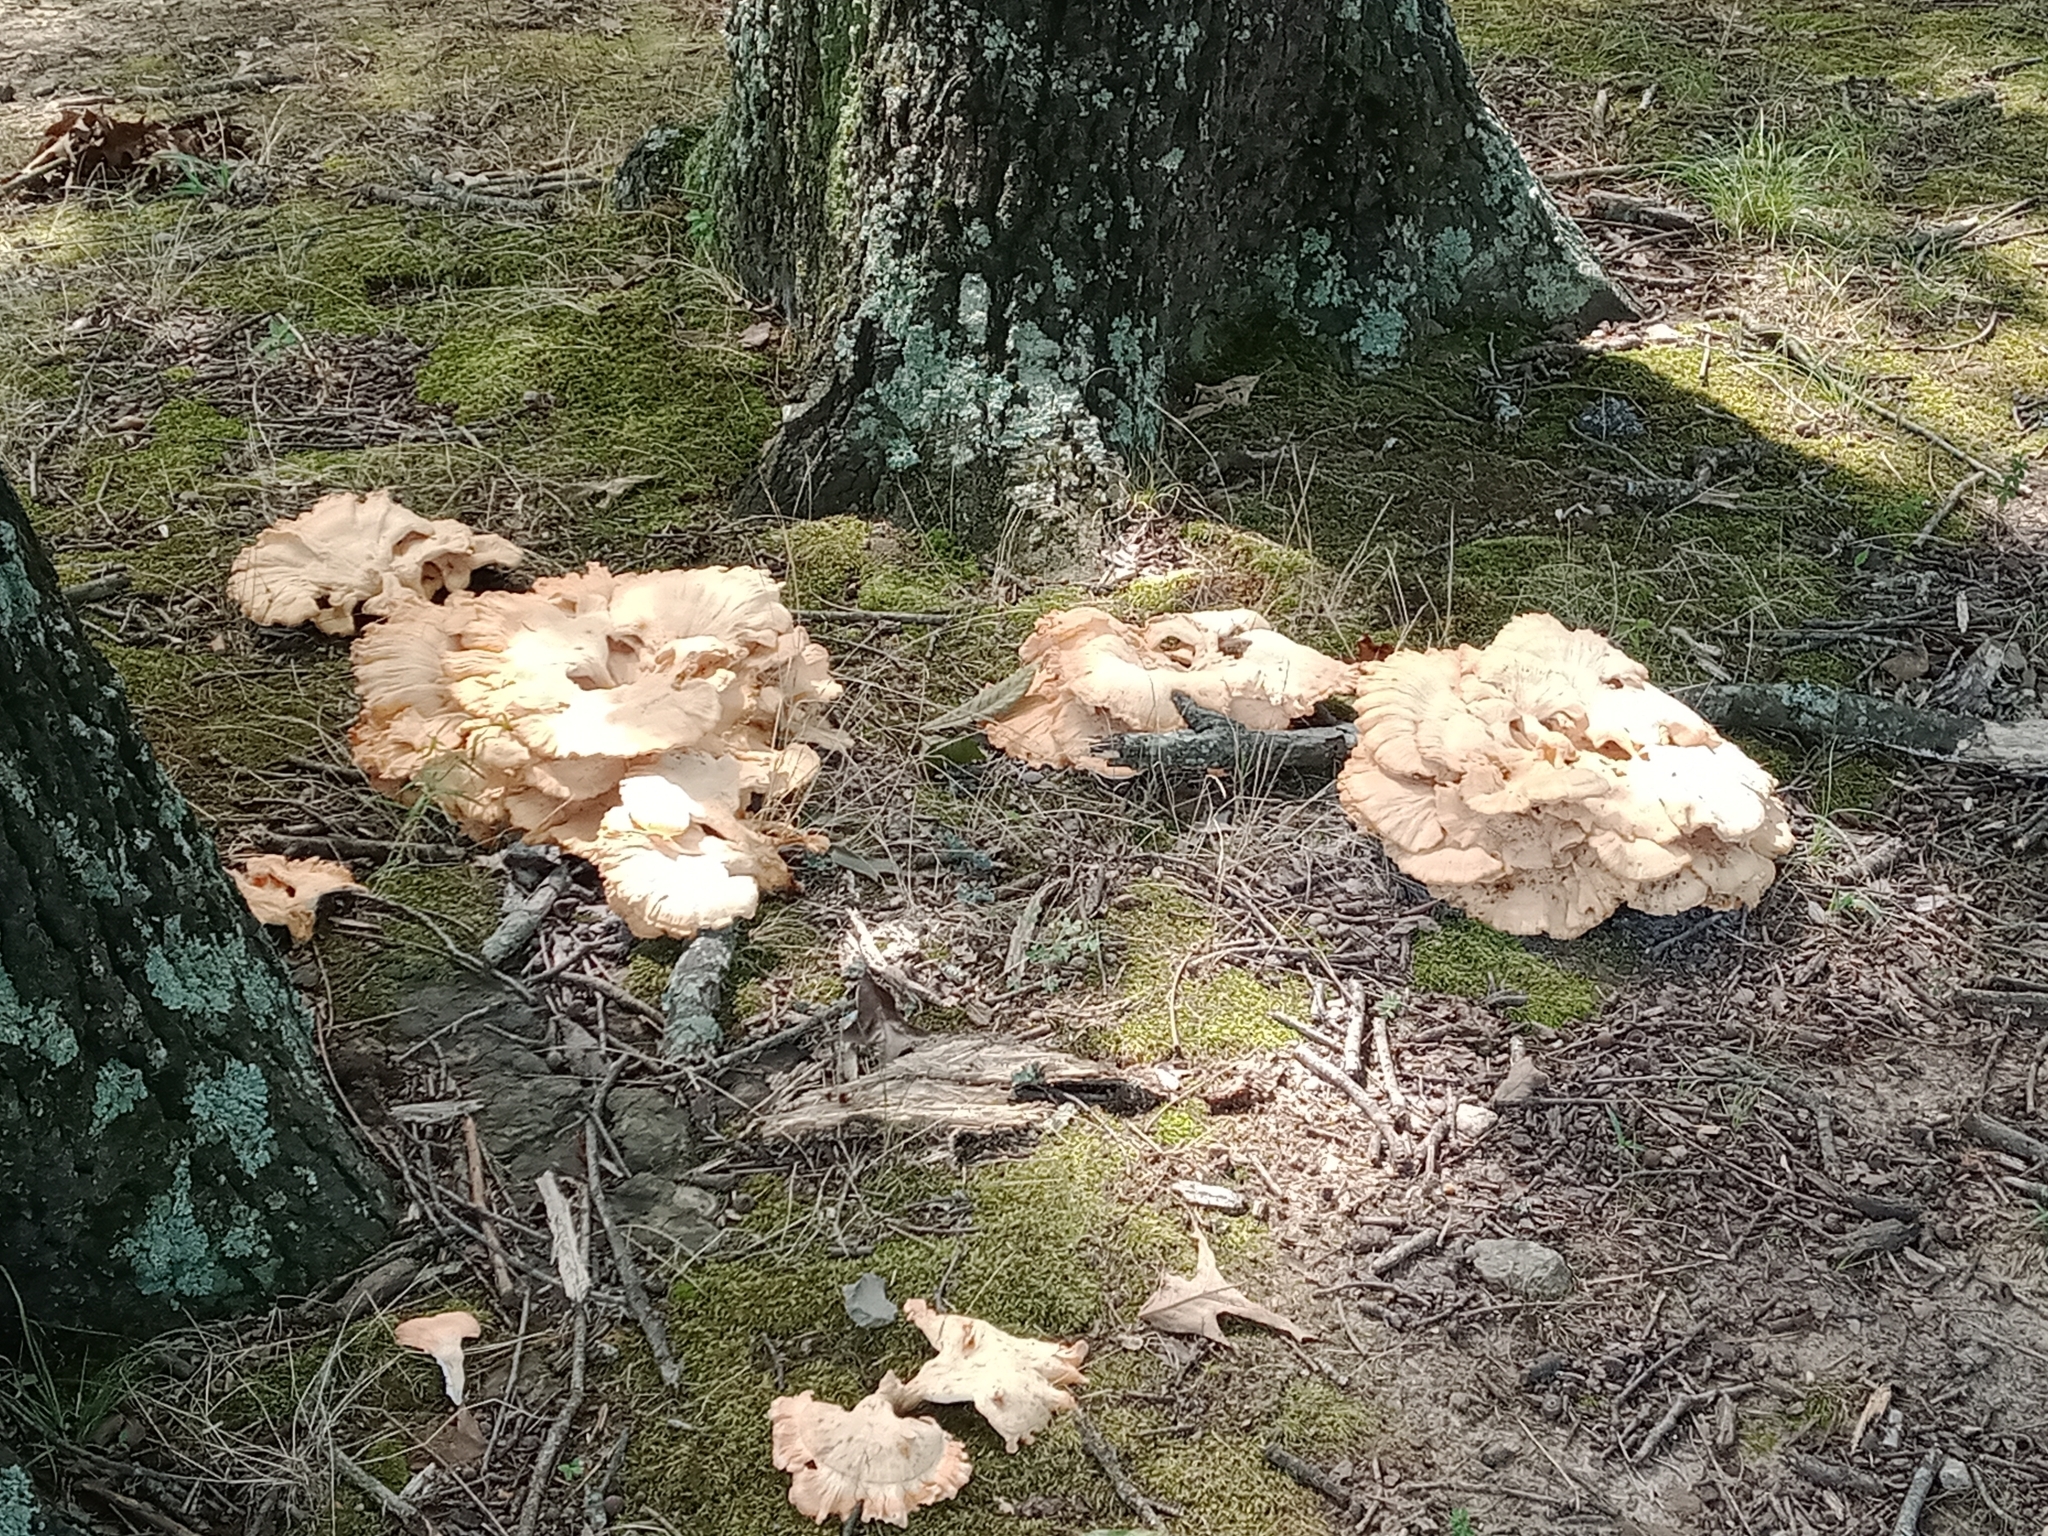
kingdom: Fungi
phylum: Basidiomycota
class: Agaricomycetes
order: Polyporales
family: Laetiporaceae
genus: Laetiporus
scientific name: Laetiporus sulphureus
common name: Chicken of the woods
